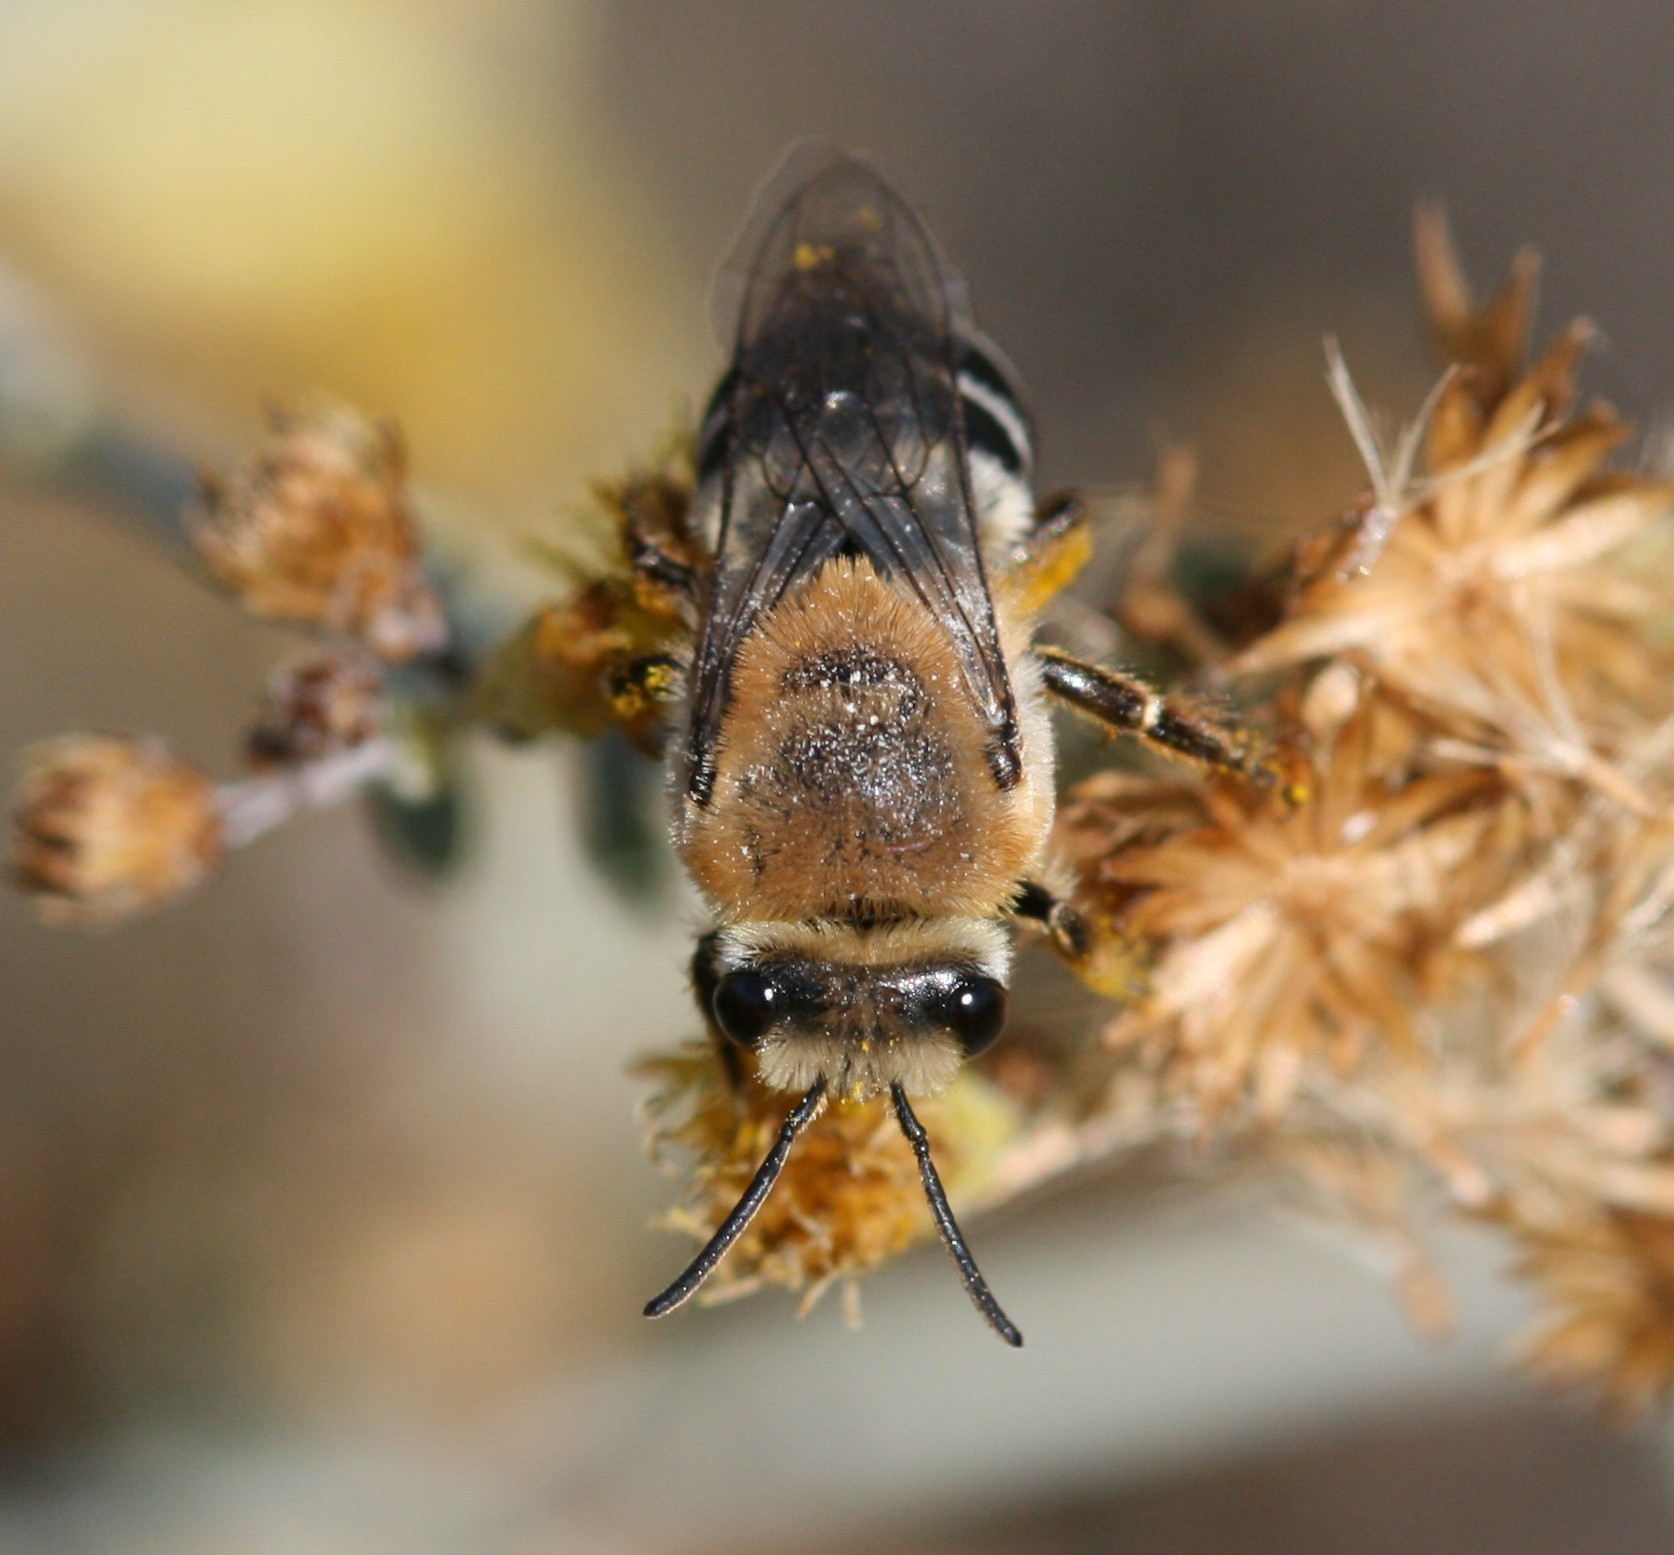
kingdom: Animalia
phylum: Arthropoda
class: Insecta
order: Hymenoptera
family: Colletidae
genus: Colletes
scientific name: Colletes dimidiatus
